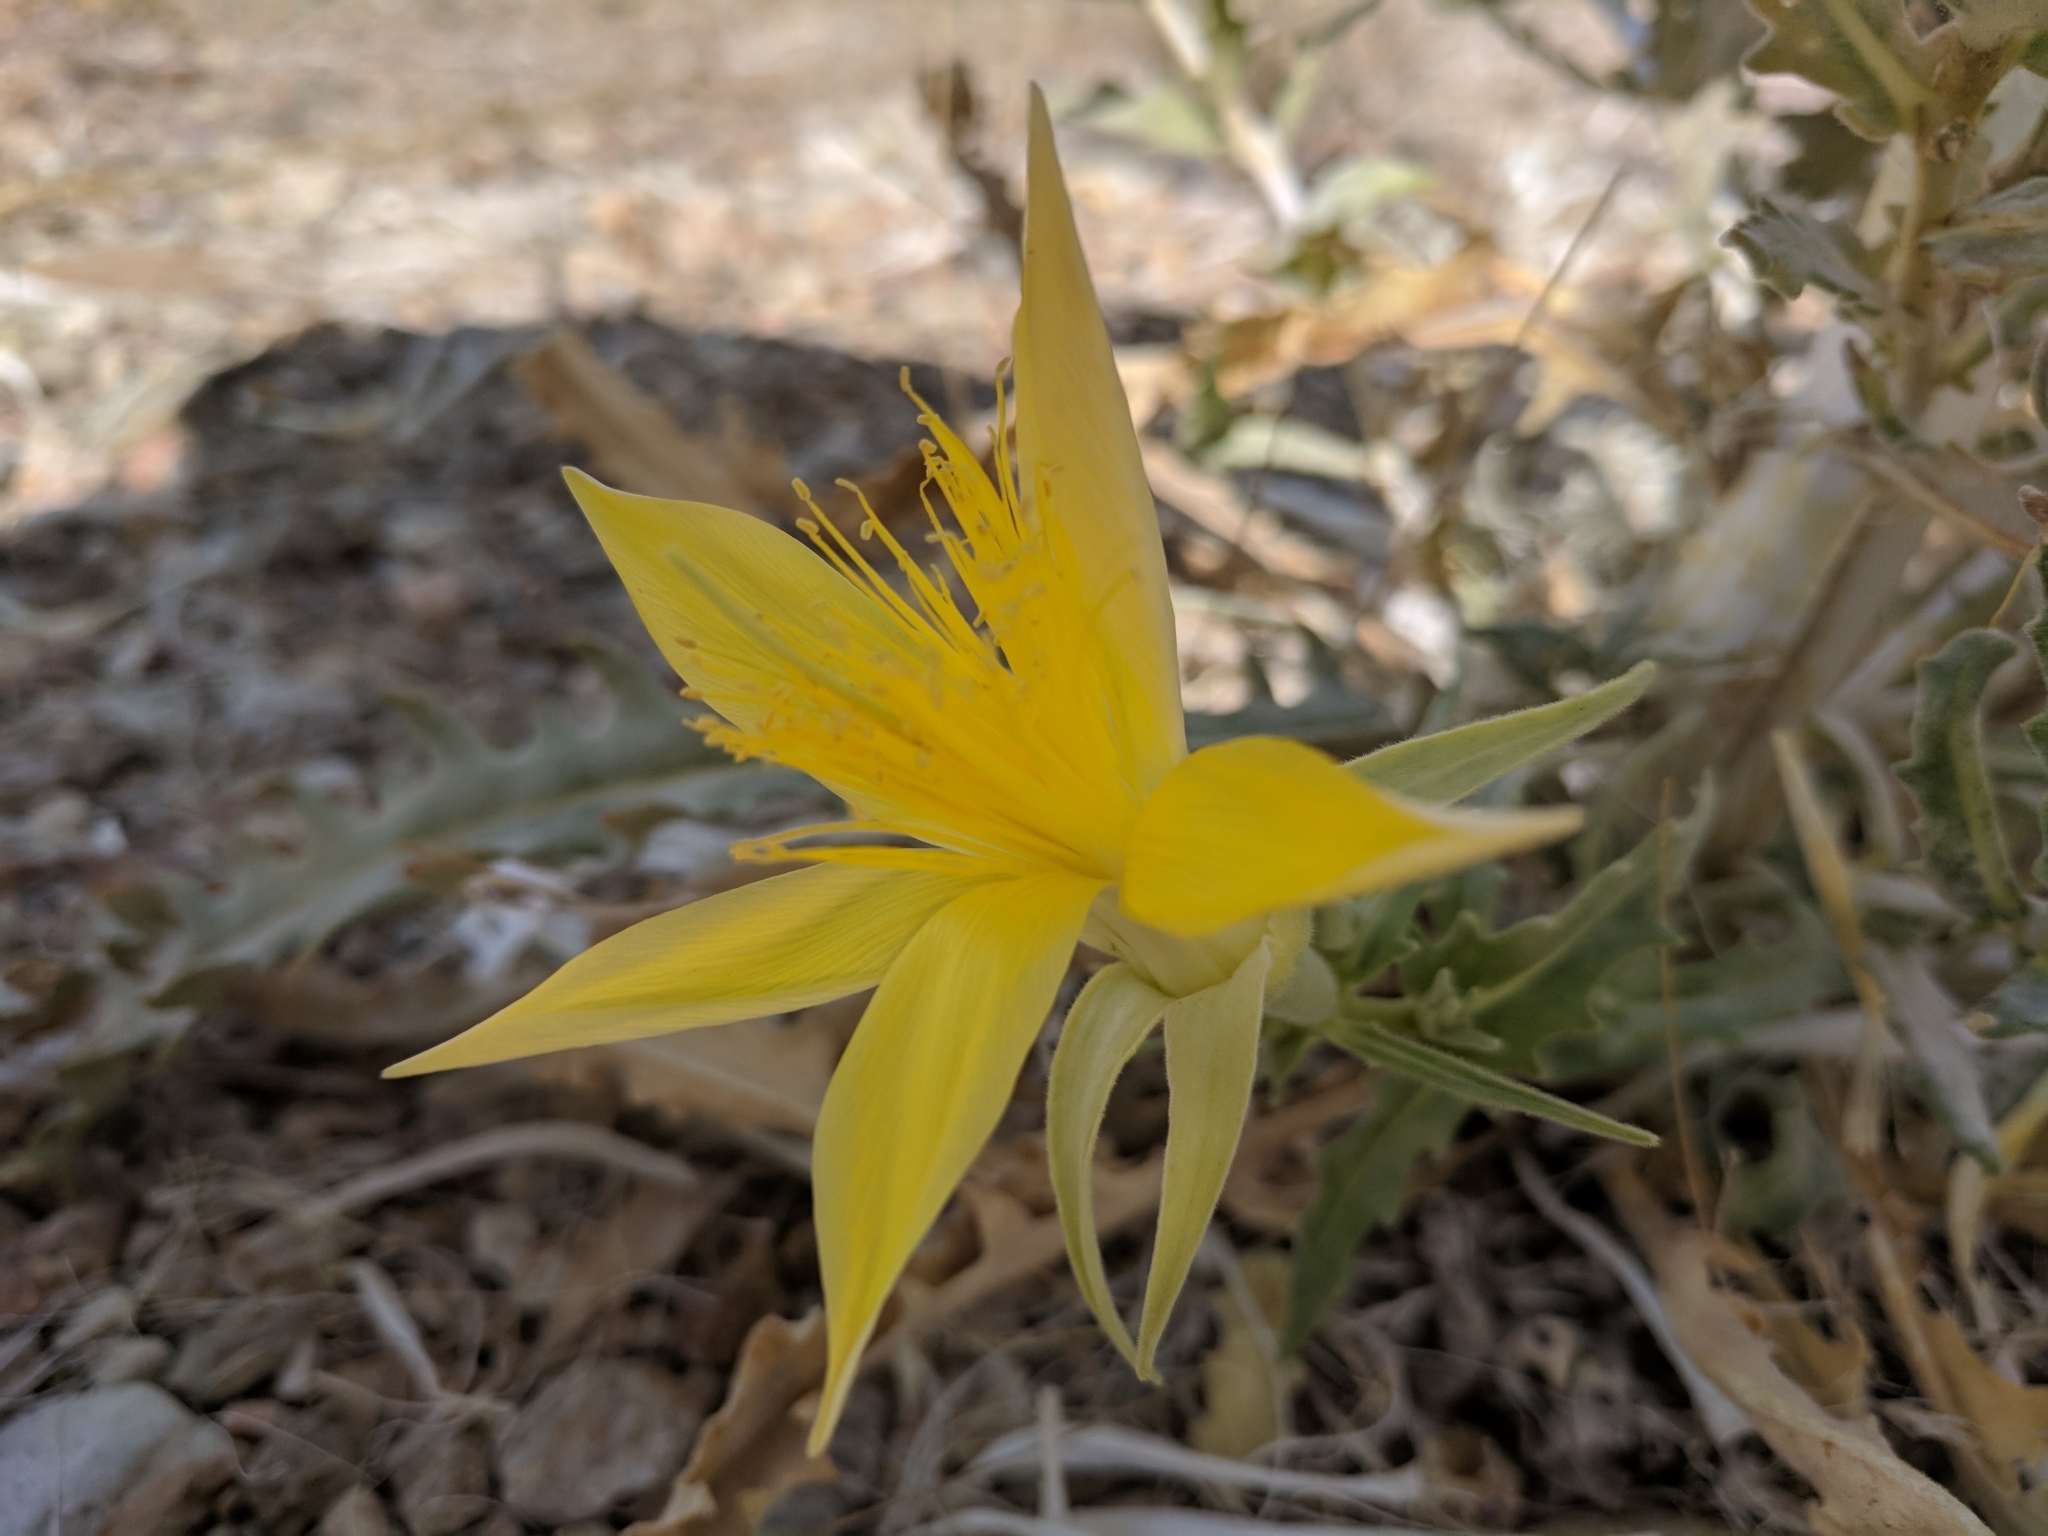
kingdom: Plantae
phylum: Tracheophyta
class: Magnoliopsida
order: Cornales
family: Loasaceae
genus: Mentzelia
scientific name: Mentzelia laevicaulis
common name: Smooth-stem blazingstar
